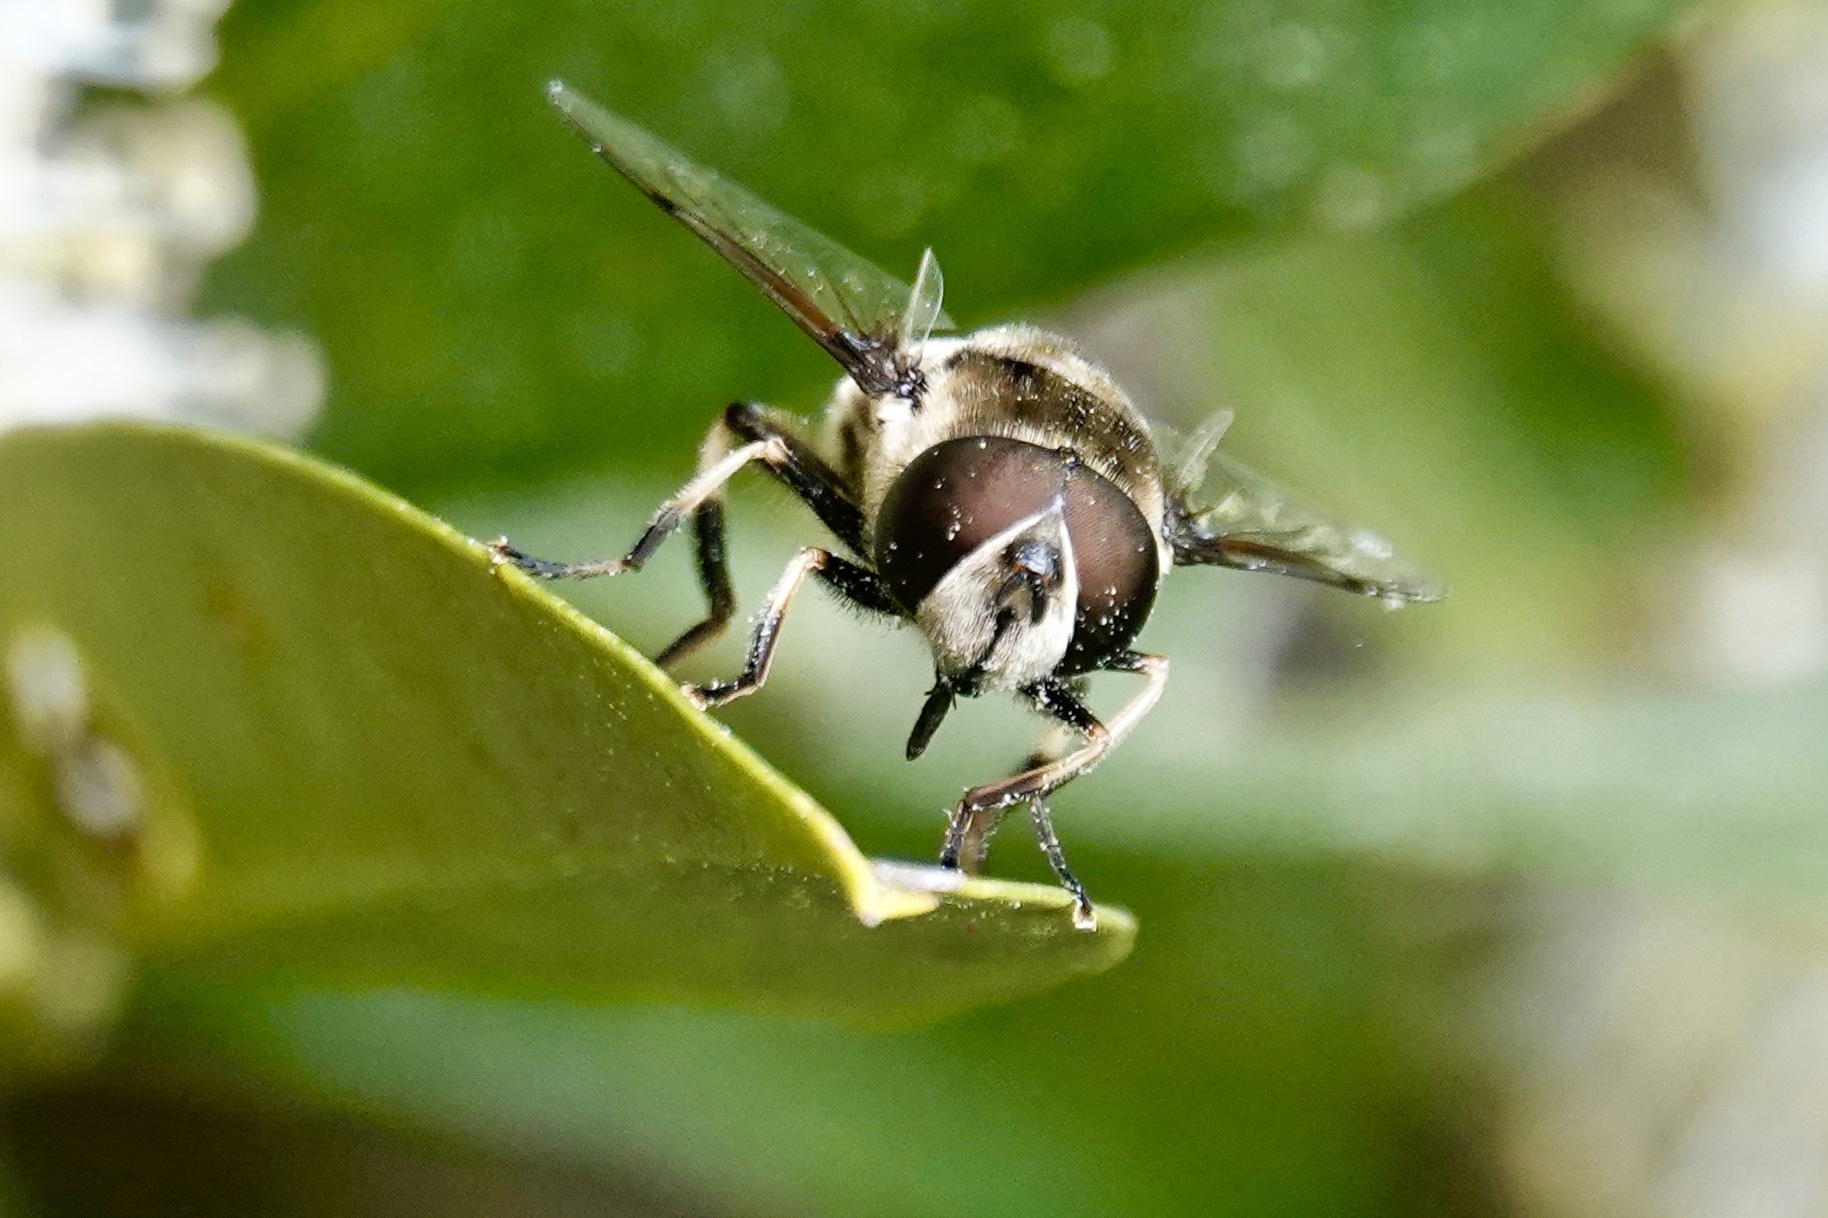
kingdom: Animalia
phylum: Arthropoda
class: Insecta
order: Diptera
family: Syrphidae
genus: Eristalis
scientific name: Eristalis dimidiata
